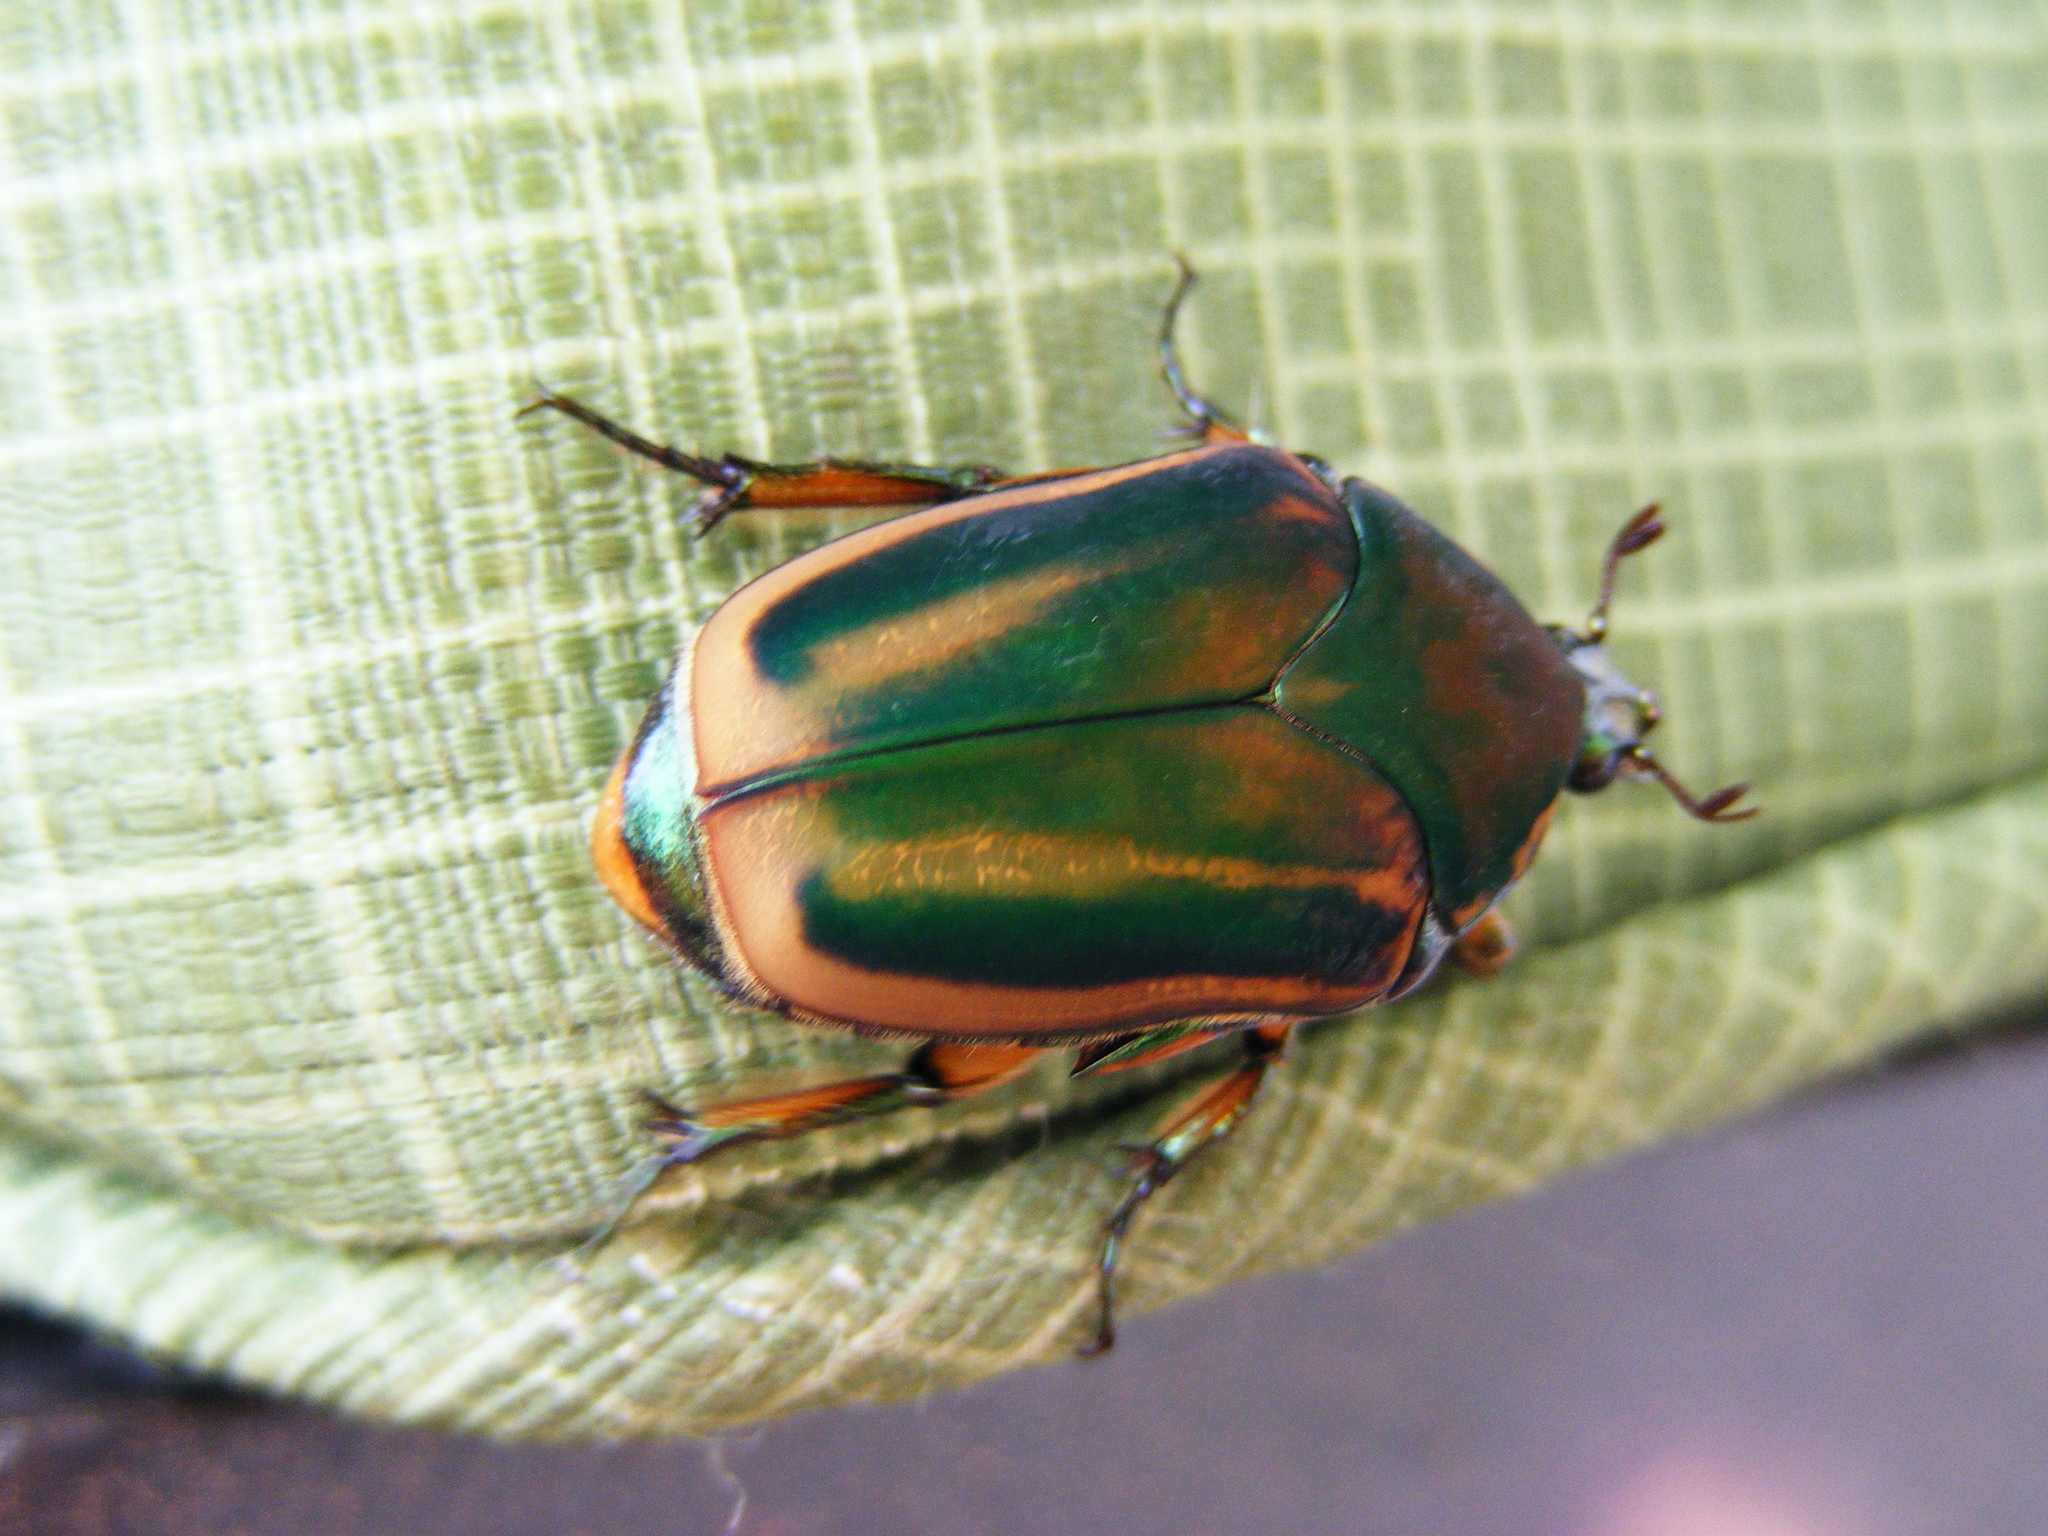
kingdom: Animalia
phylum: Arthropoda
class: Insecta
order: Coleoptera
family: Scarabaeidae
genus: Cotinis
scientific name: Cotinis nitida
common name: Common green june beetle
